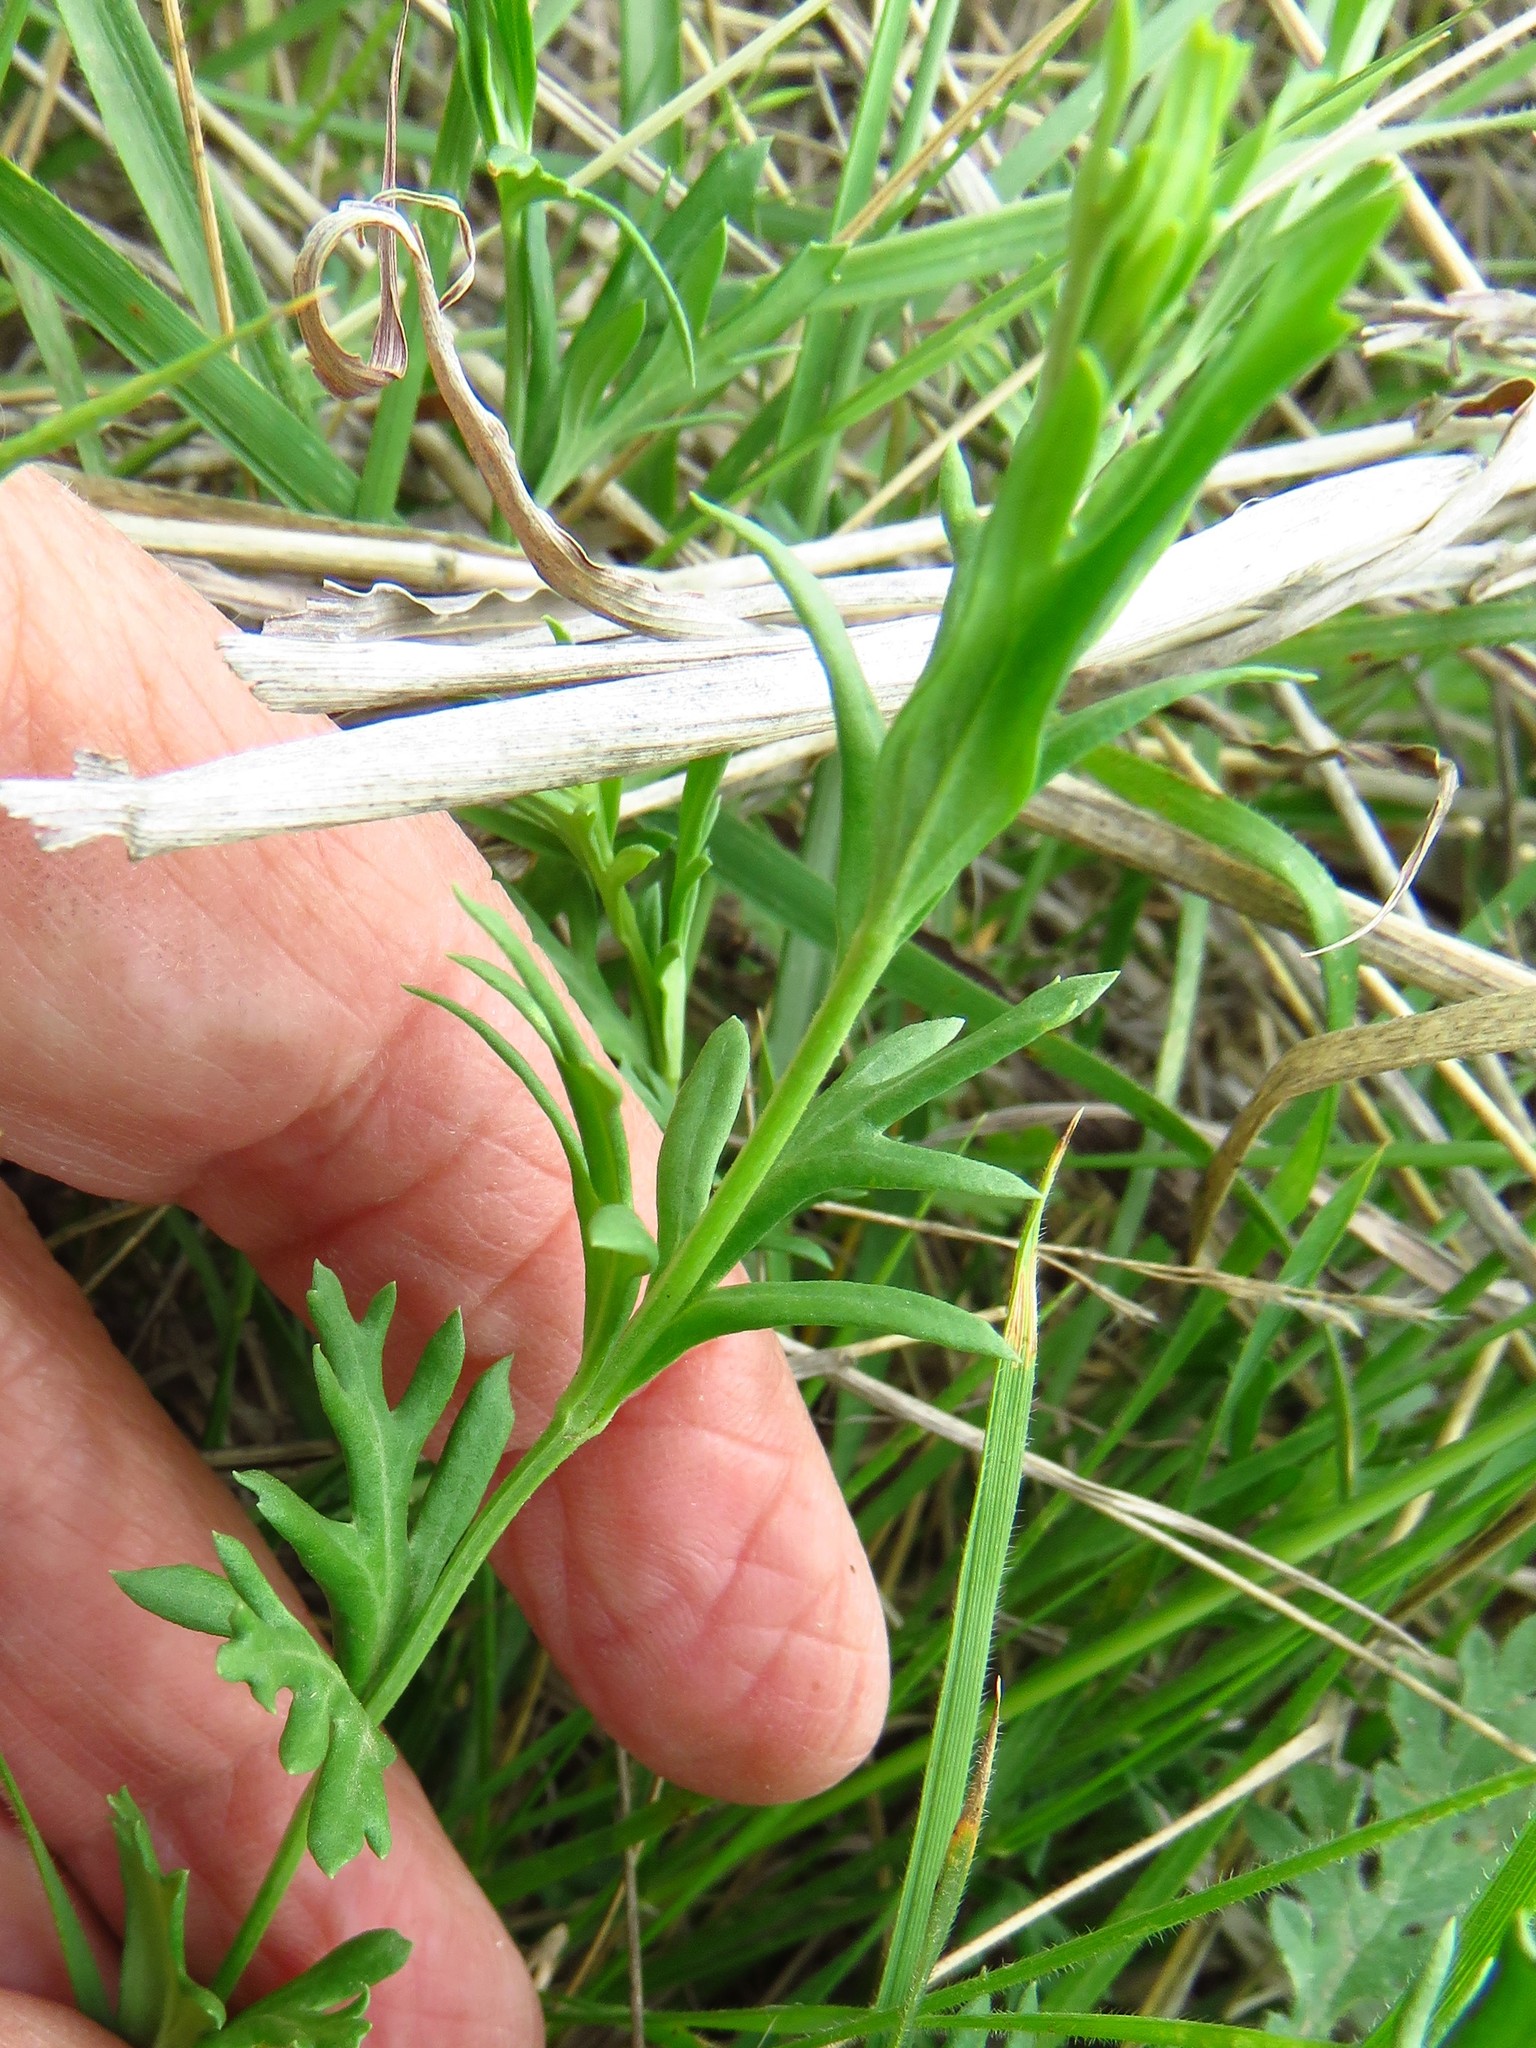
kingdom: Plantae
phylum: Tracheophyta
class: Magnoliopsida
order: Lamiales
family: Oleaceae
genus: Menodora
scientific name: Menodora heterophylla
